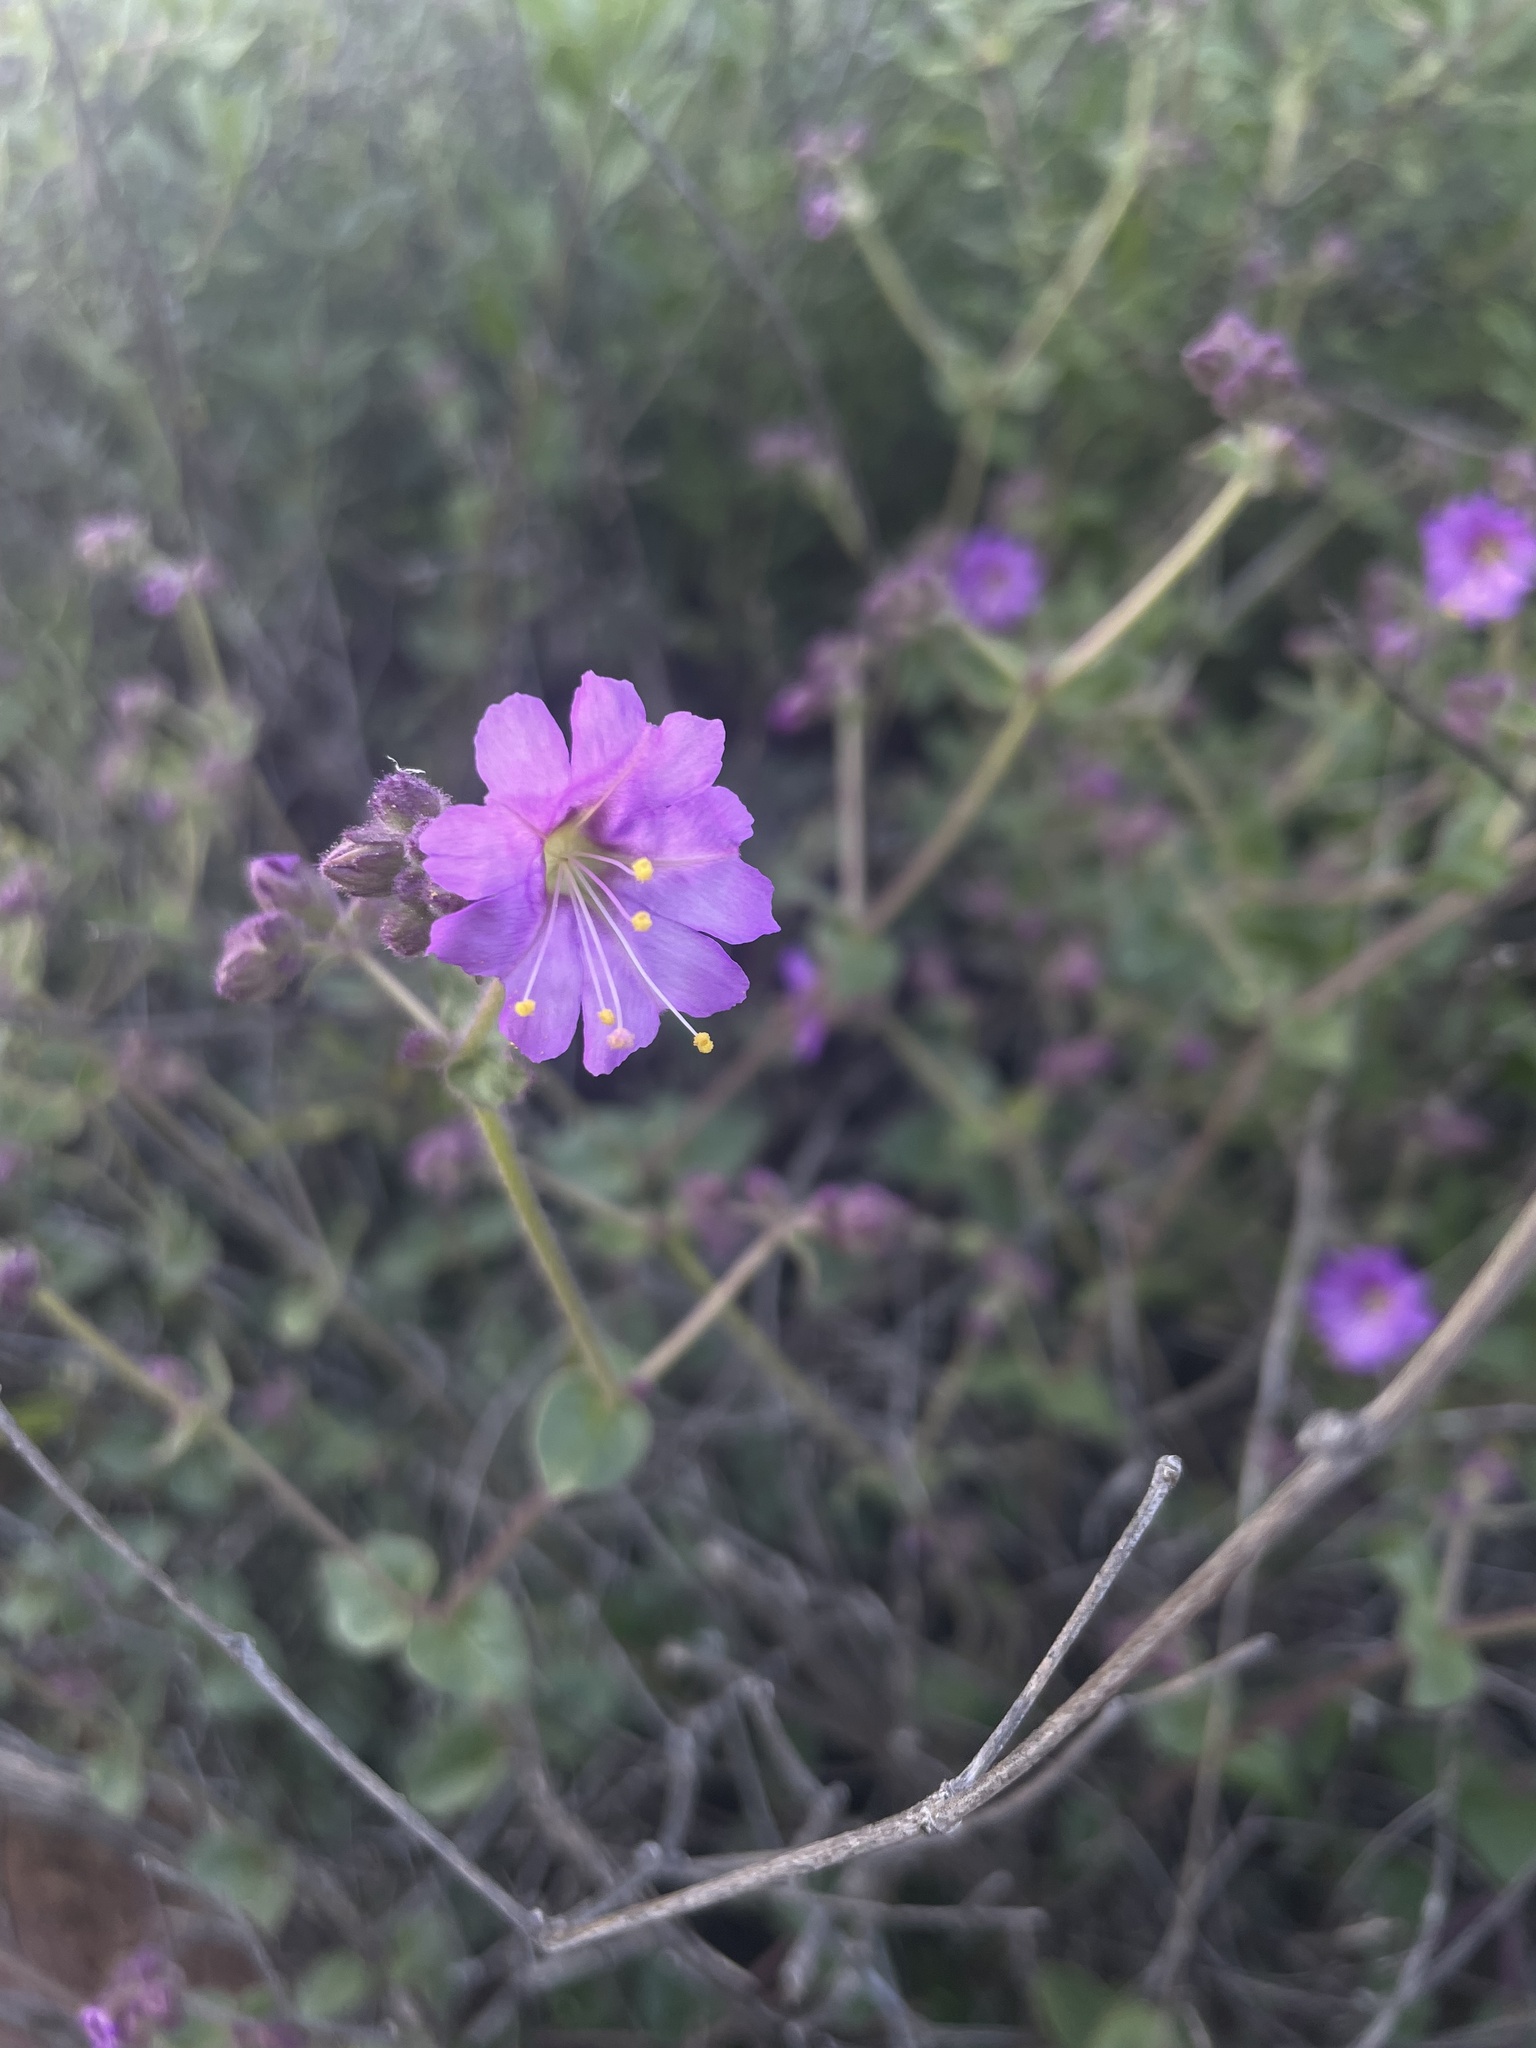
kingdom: Plantae
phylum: Tracheophyta
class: Magnoliopsida
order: Caryophyllales
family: Nyctaginaceae
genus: Mirabilis
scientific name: Mirabilis laevis
